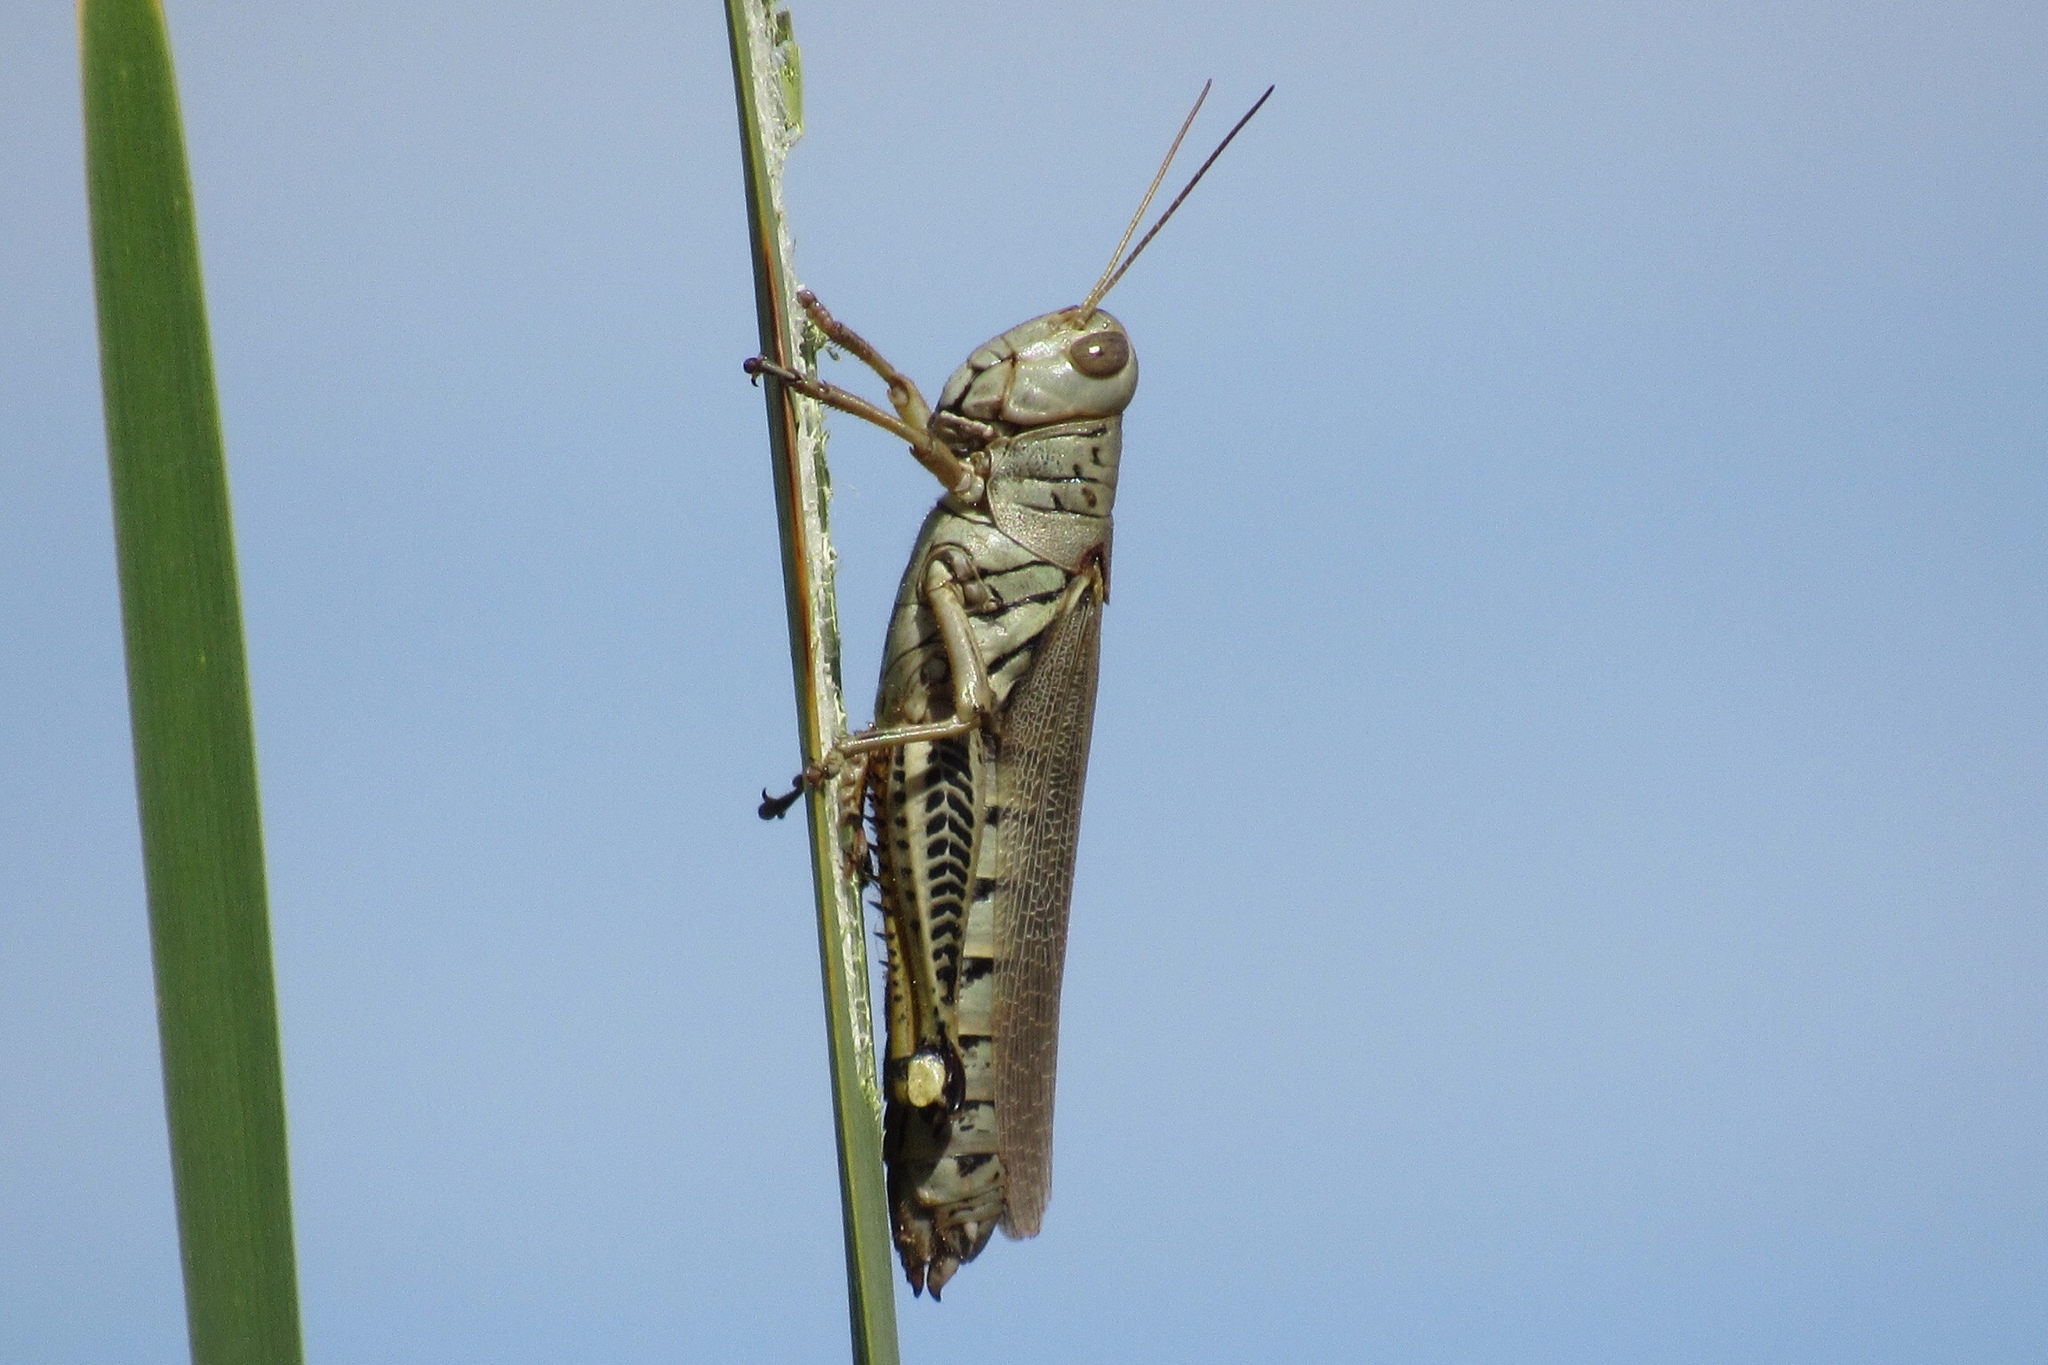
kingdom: Animalia
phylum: Arthropoda
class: Insecta
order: Orthoptera
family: Acrididae
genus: Melanoplus
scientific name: Melanoplus differentialis
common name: Differential grasshopper
